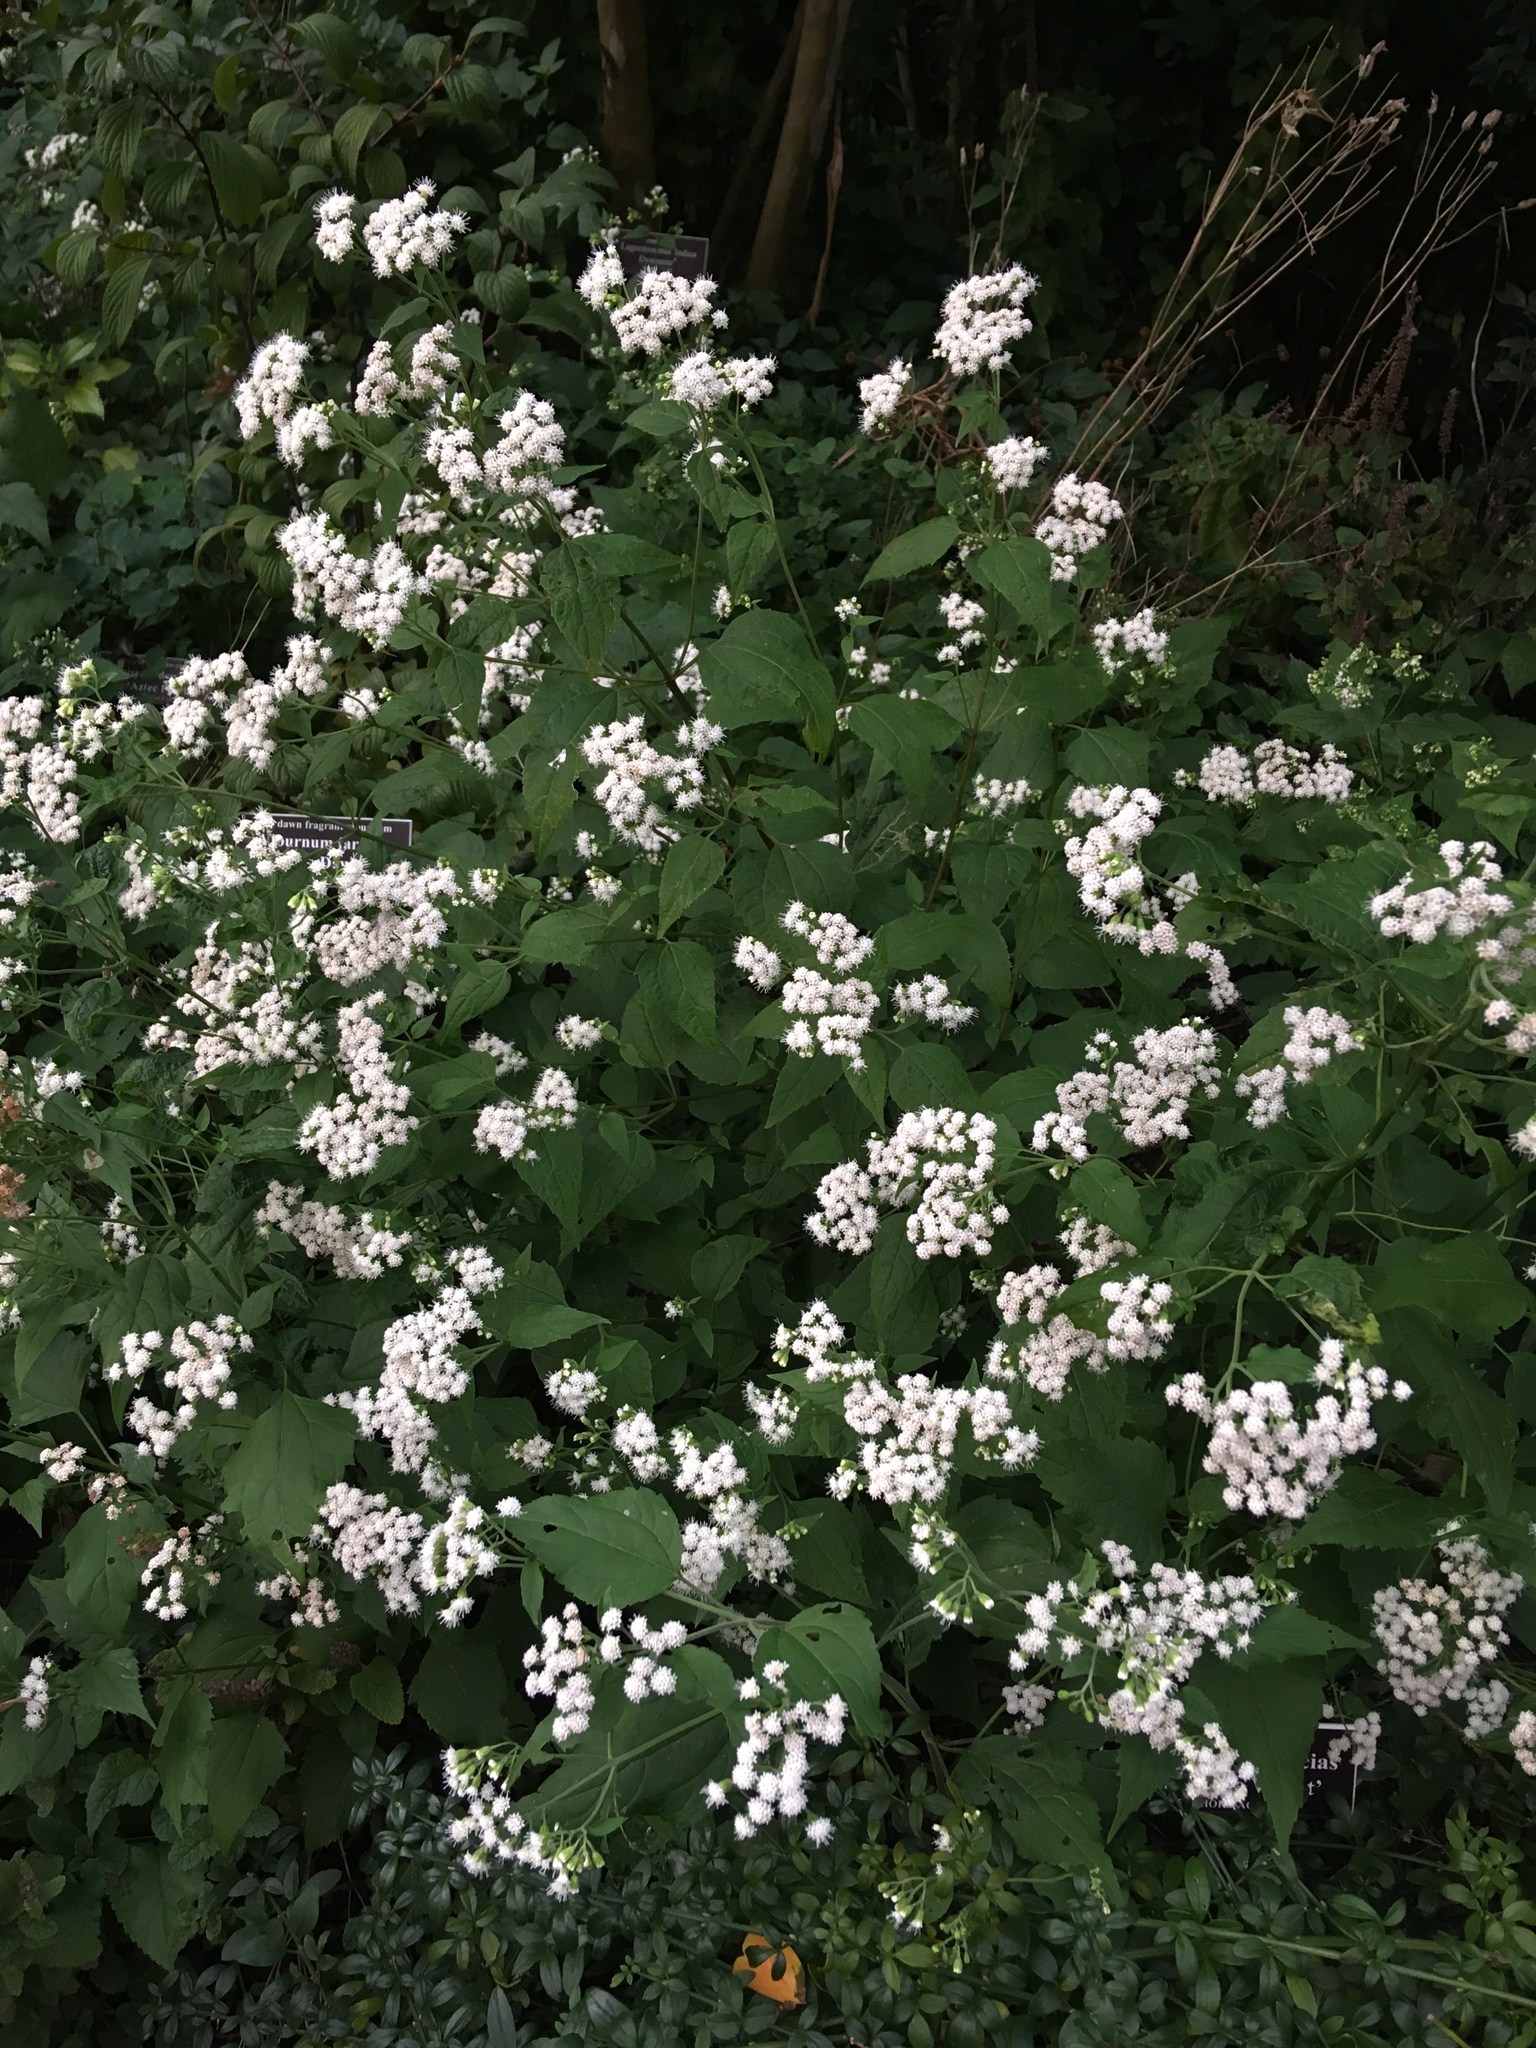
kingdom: Plantae
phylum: Tracheophyta
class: Magnoliopsida
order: Asterales
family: Asteraceae
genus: Ageratina
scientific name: Ageratina altissima
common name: White snakeroot
